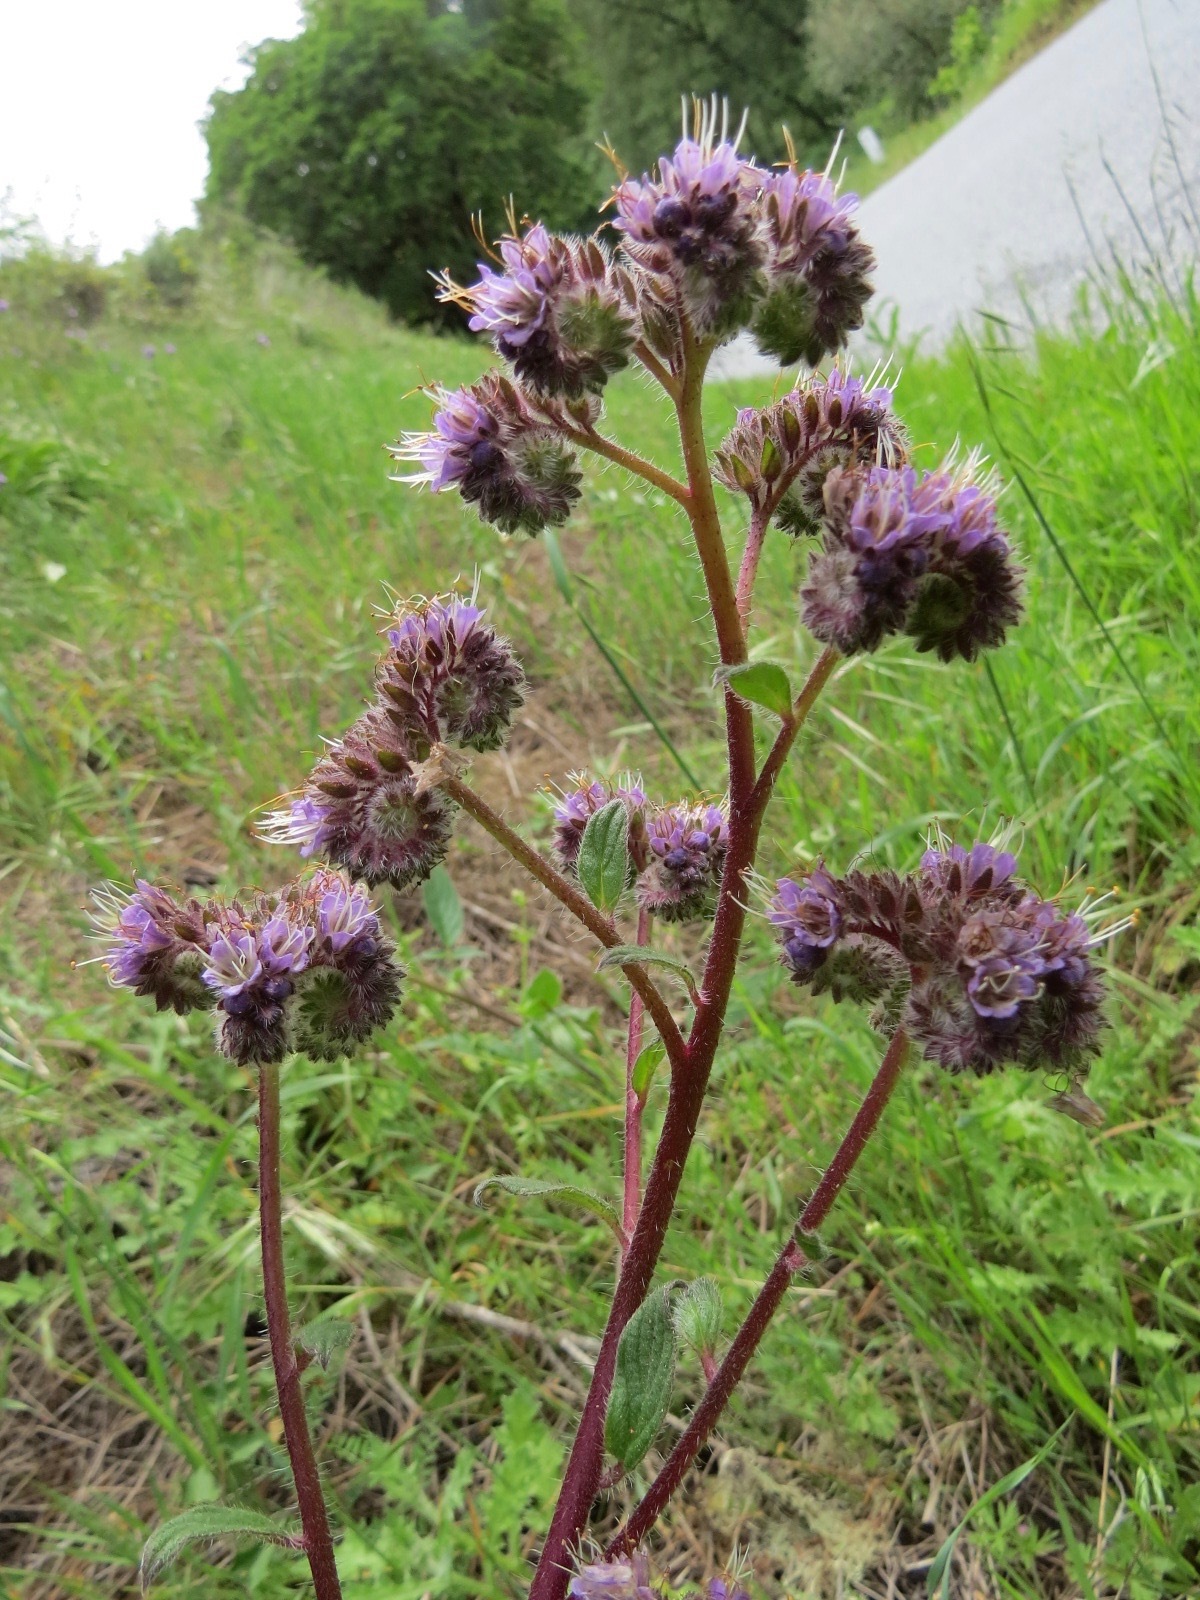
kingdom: Plantae
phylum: Tracheophyta
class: Magnoliopsida
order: Boraginales
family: Hydrophyllaceae
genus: Phacelia
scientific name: Phacelia californica
